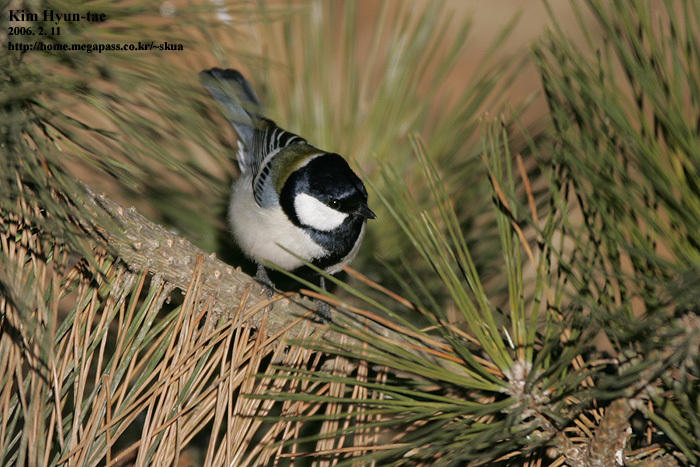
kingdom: Animalia
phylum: Chordata
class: Aves
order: Passeriformes
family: Paridae
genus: Parus
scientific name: Parus minor
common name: Japanese tit
